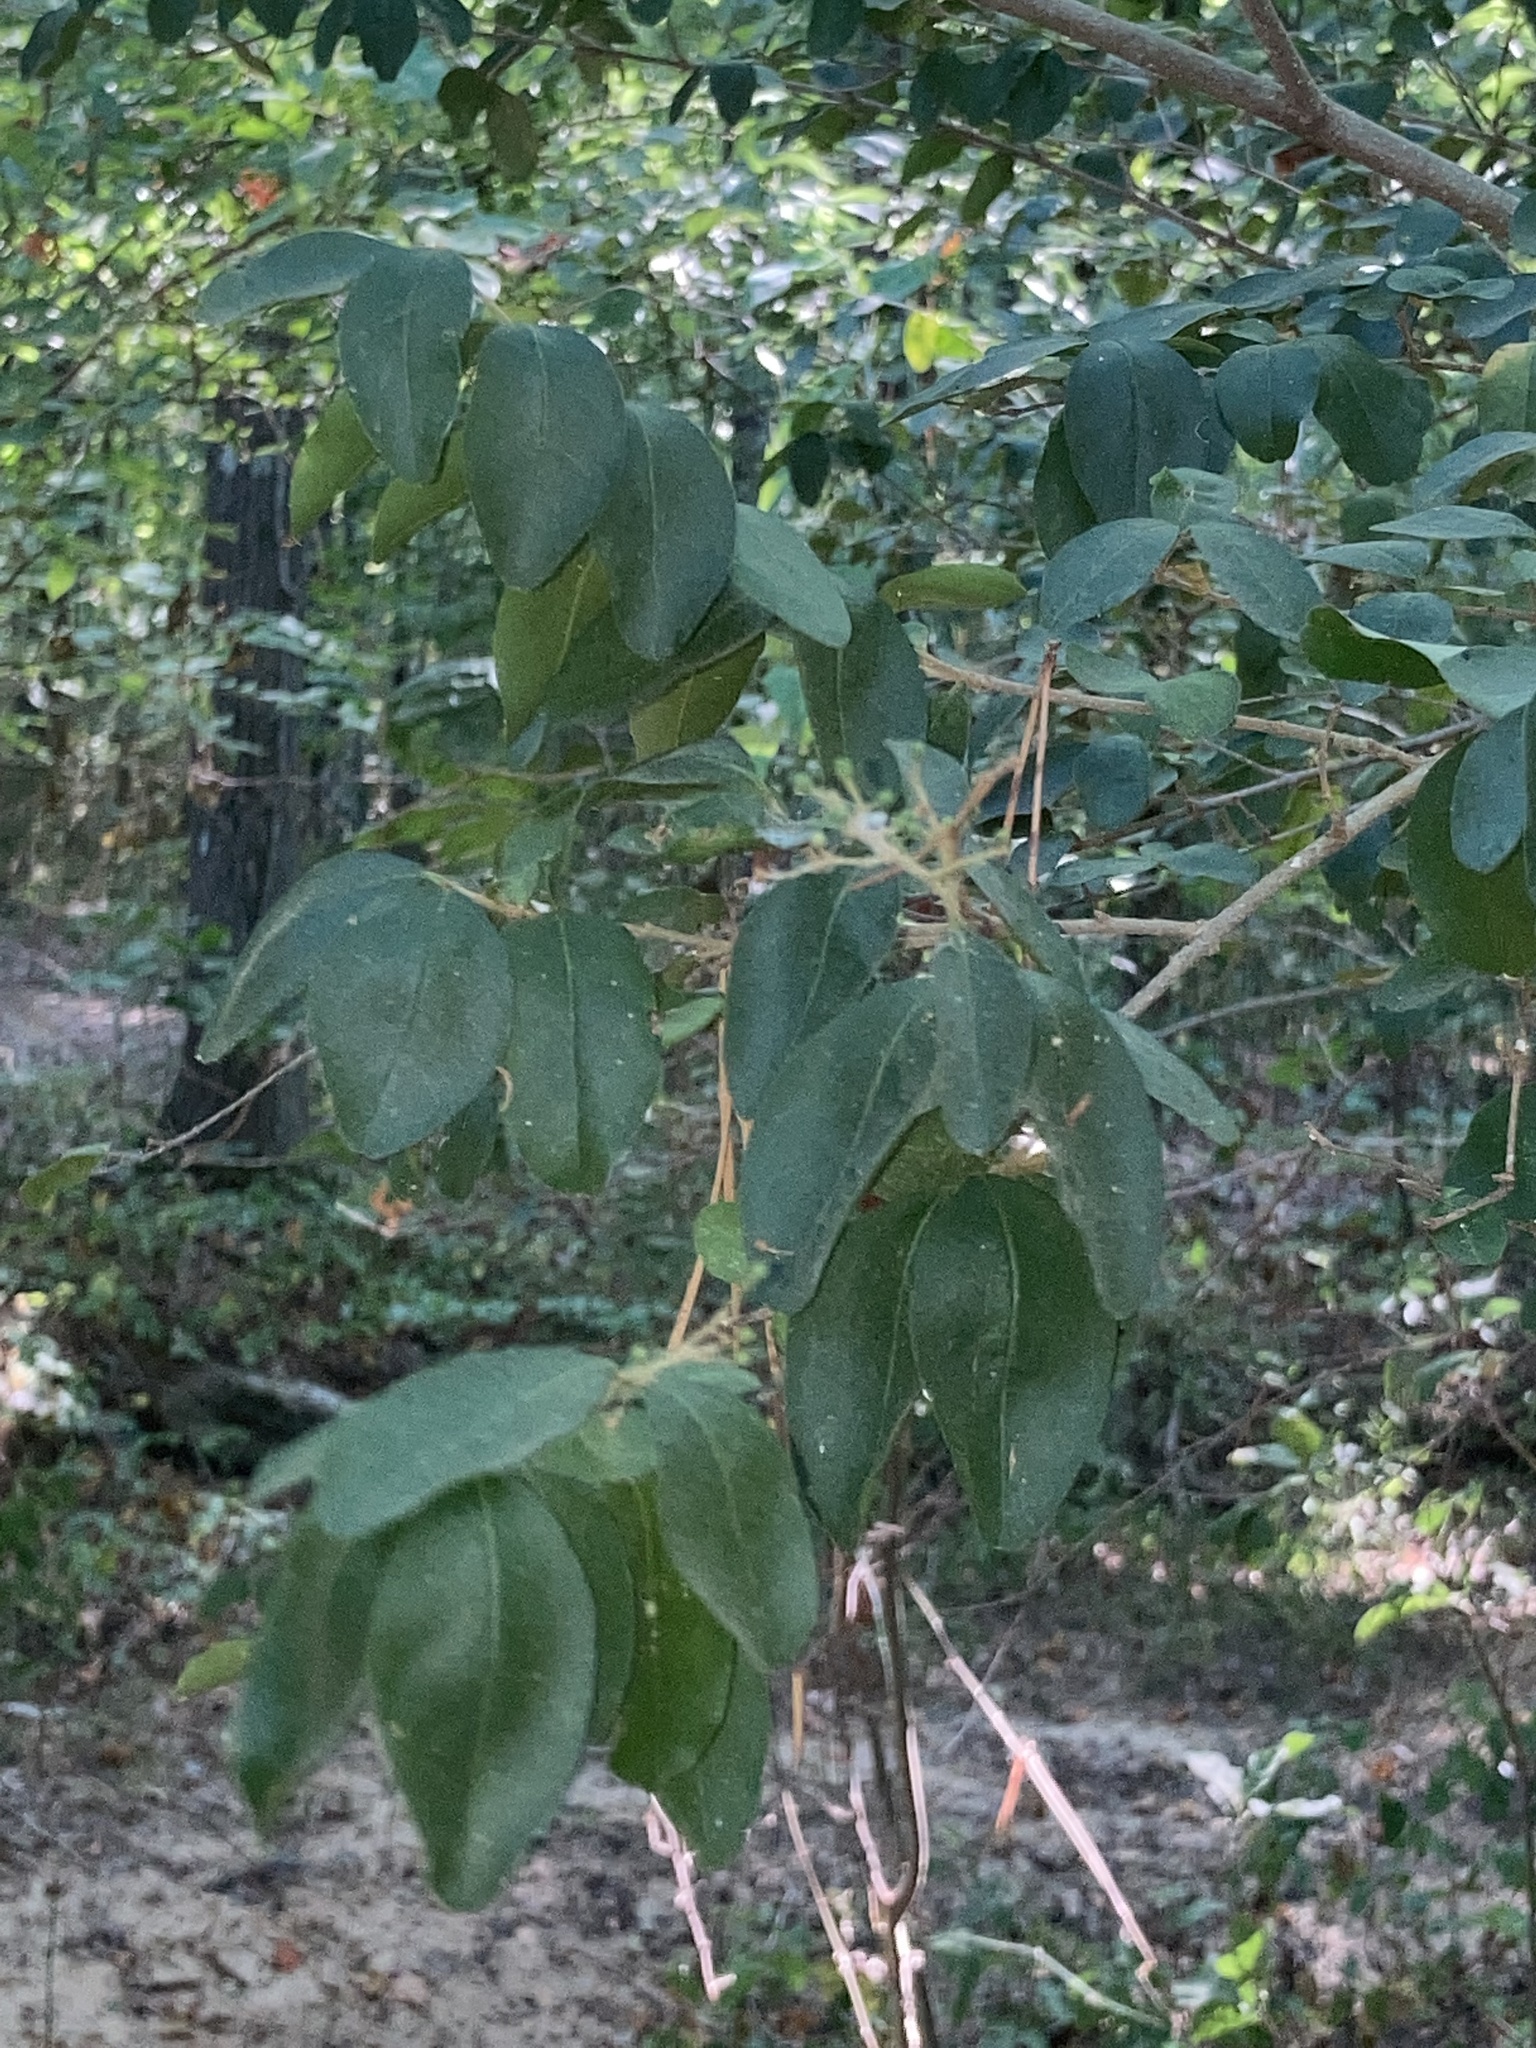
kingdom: Plantae
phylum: Tracheophyta
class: Magnoliopsida
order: Lamiales
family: Oleaceae
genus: Ligustrum
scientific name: Ligustrum sinense
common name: Chinese privet
